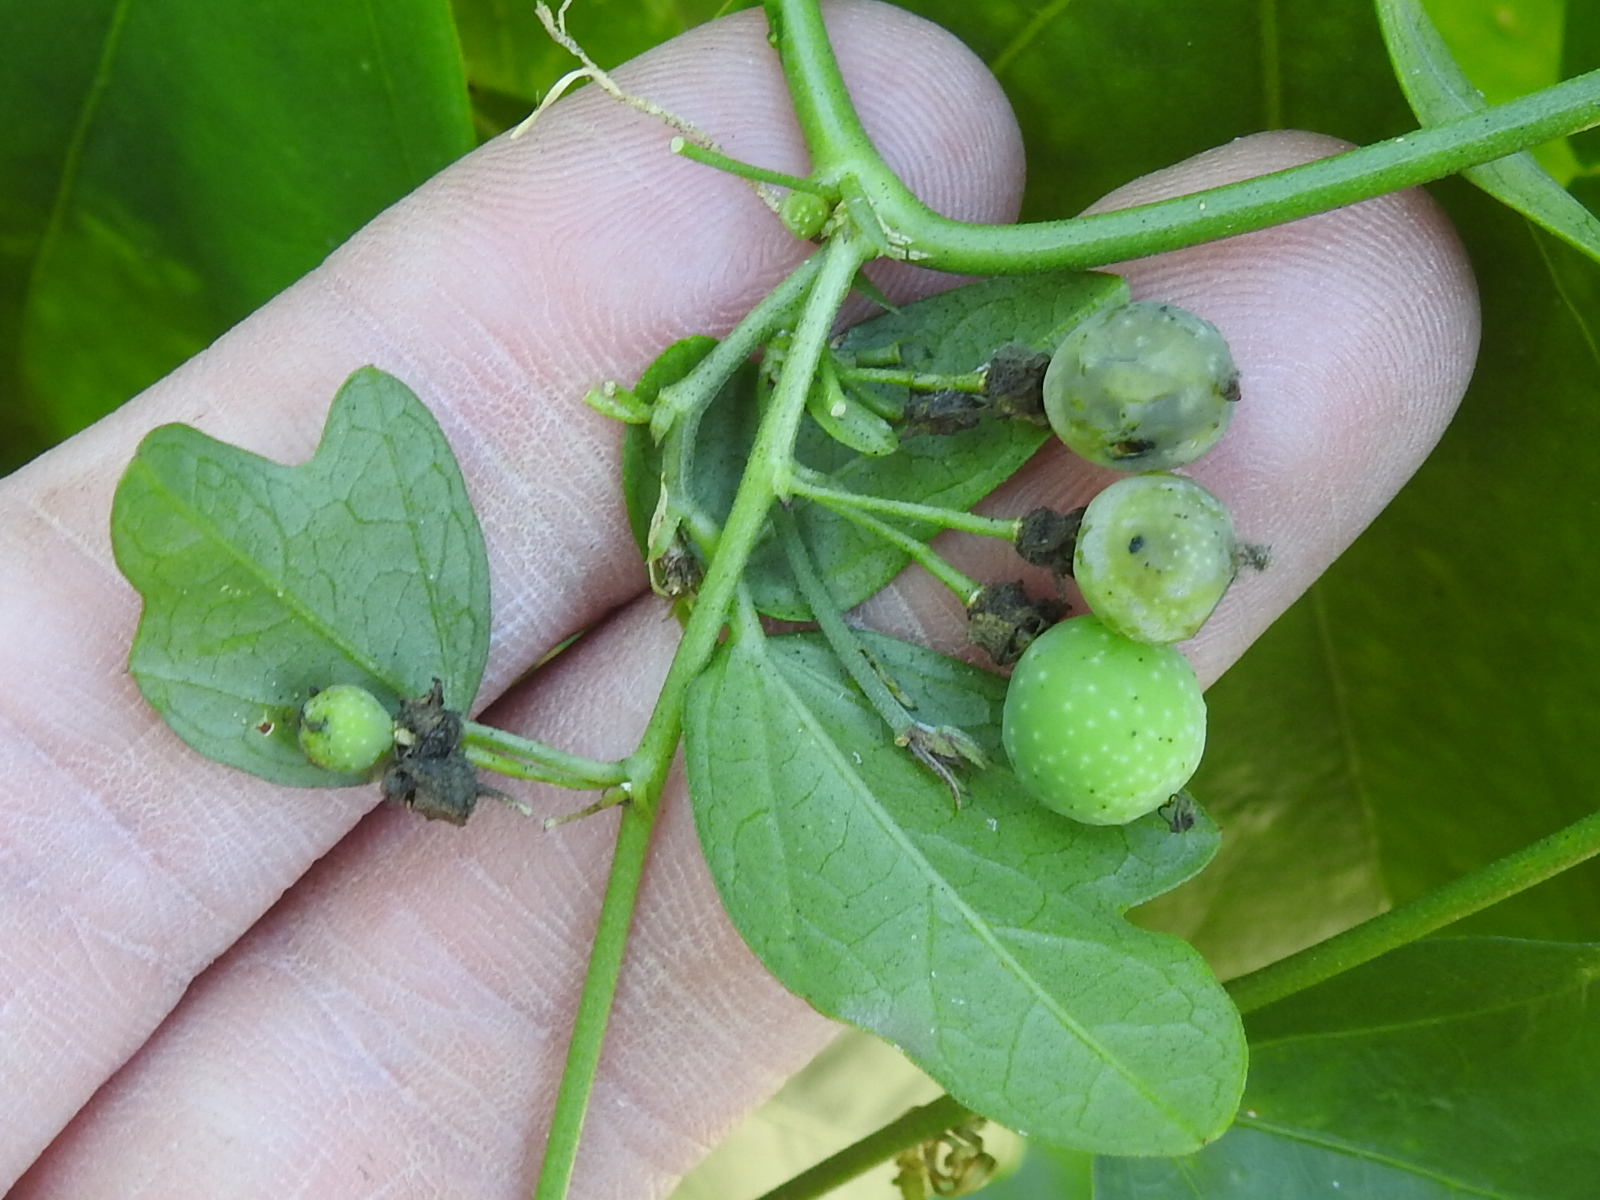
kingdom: Plantae
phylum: Tracheophyta
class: Magnoliopsida
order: Malpighiales
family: Passifloraceae
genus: Passiflora
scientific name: Passiflora pallida
